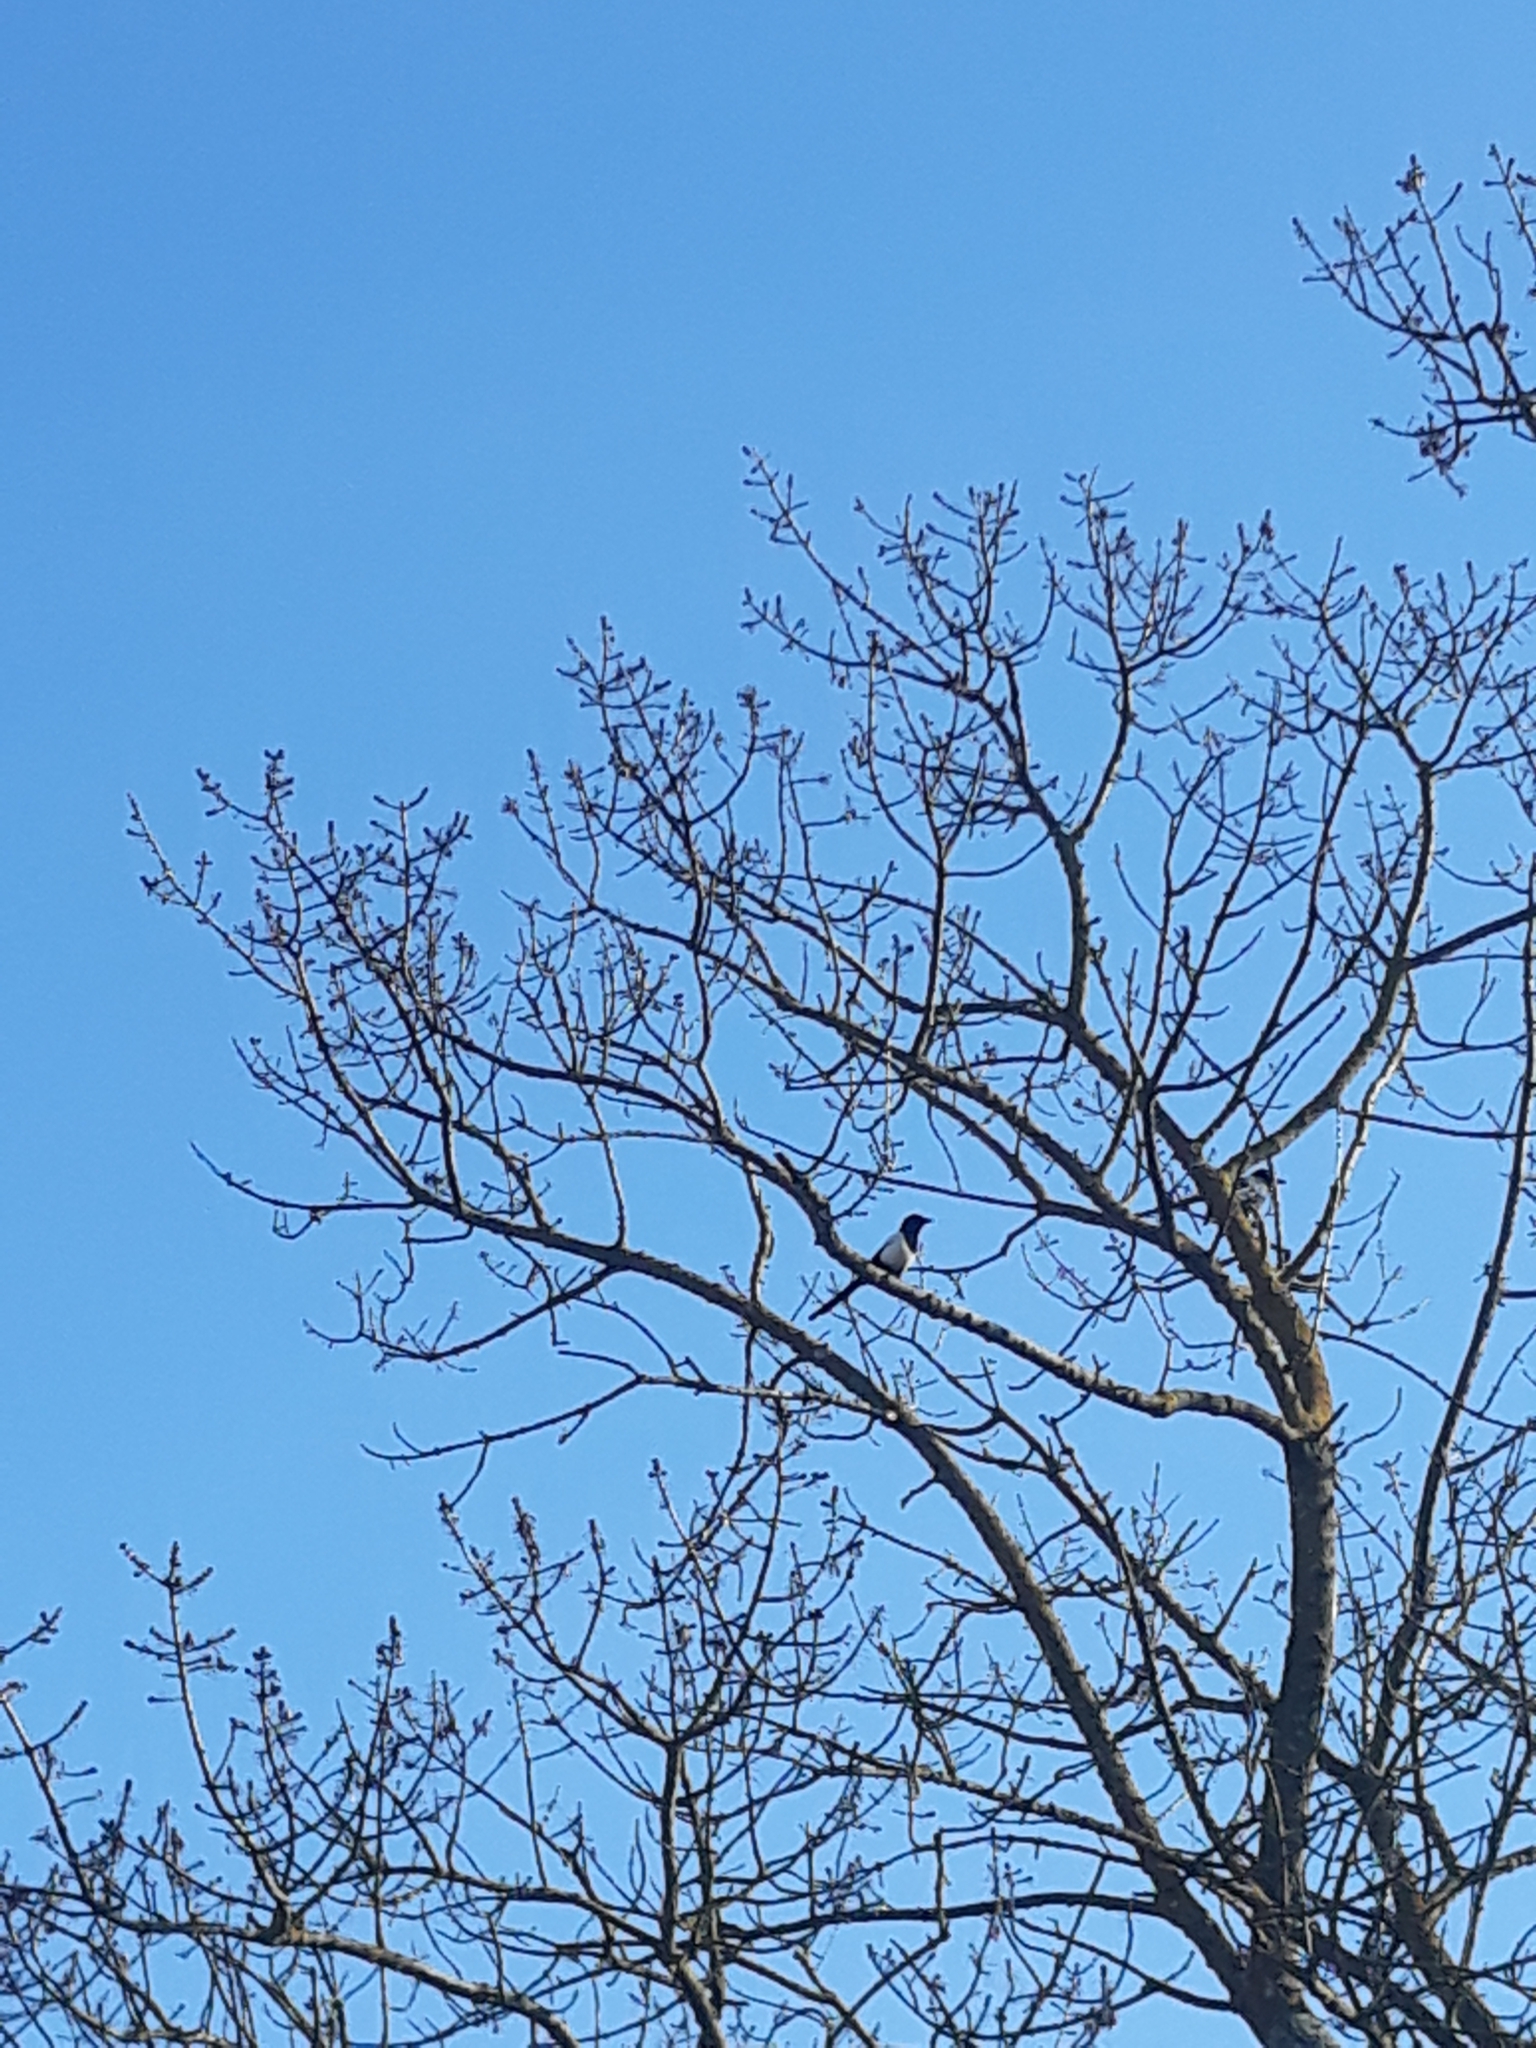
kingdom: Animalia
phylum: Chordata
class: Aves
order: Passeriformes
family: Corvidae
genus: Pica
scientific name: Pica pica
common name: Eurasian magpie
